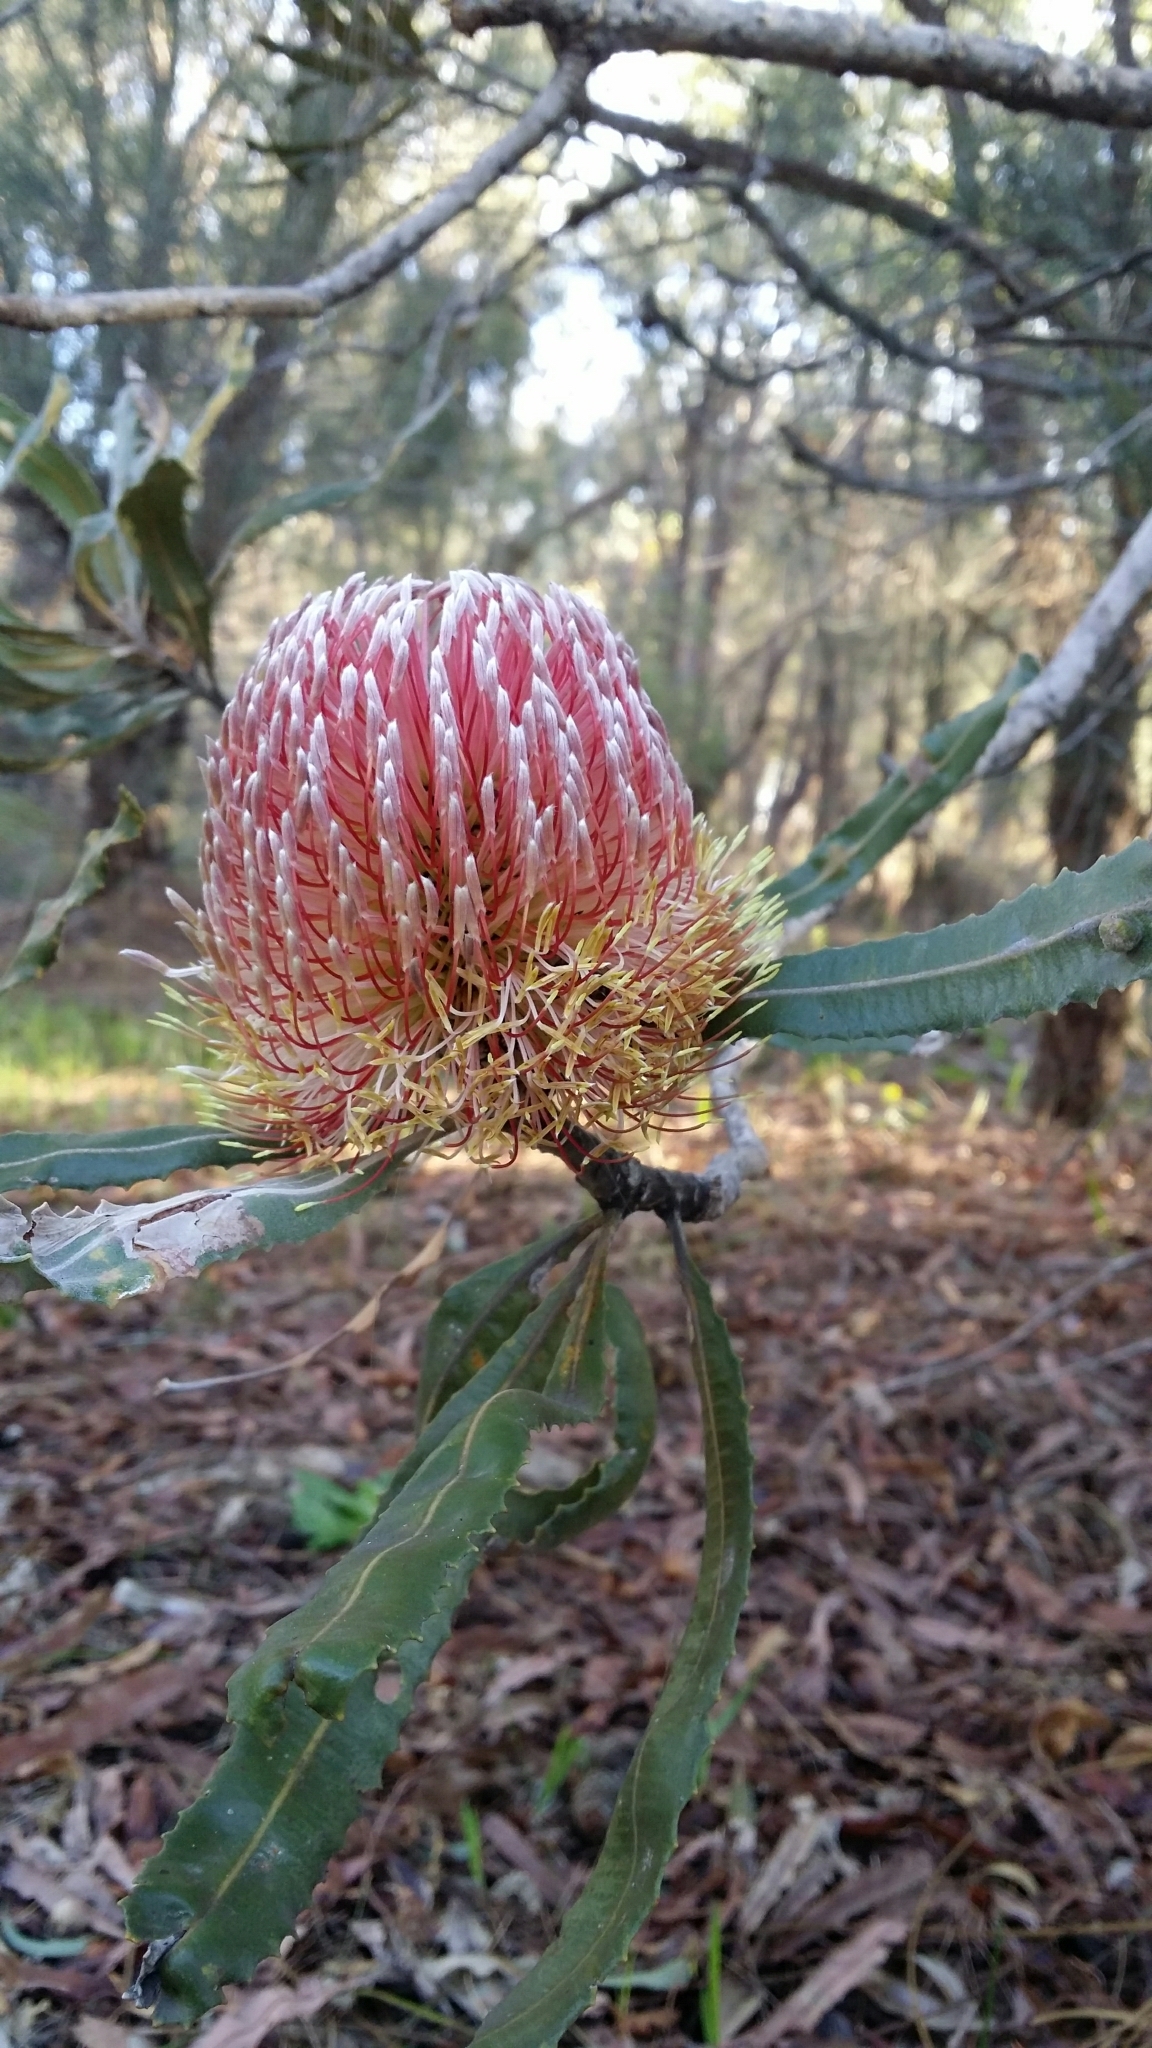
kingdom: Plantae
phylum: Tracheophyta
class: Magnoliopsida
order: Proteales
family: Proteaceae
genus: Banksia
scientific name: Banksia menziesii
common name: Menzie's banksia
